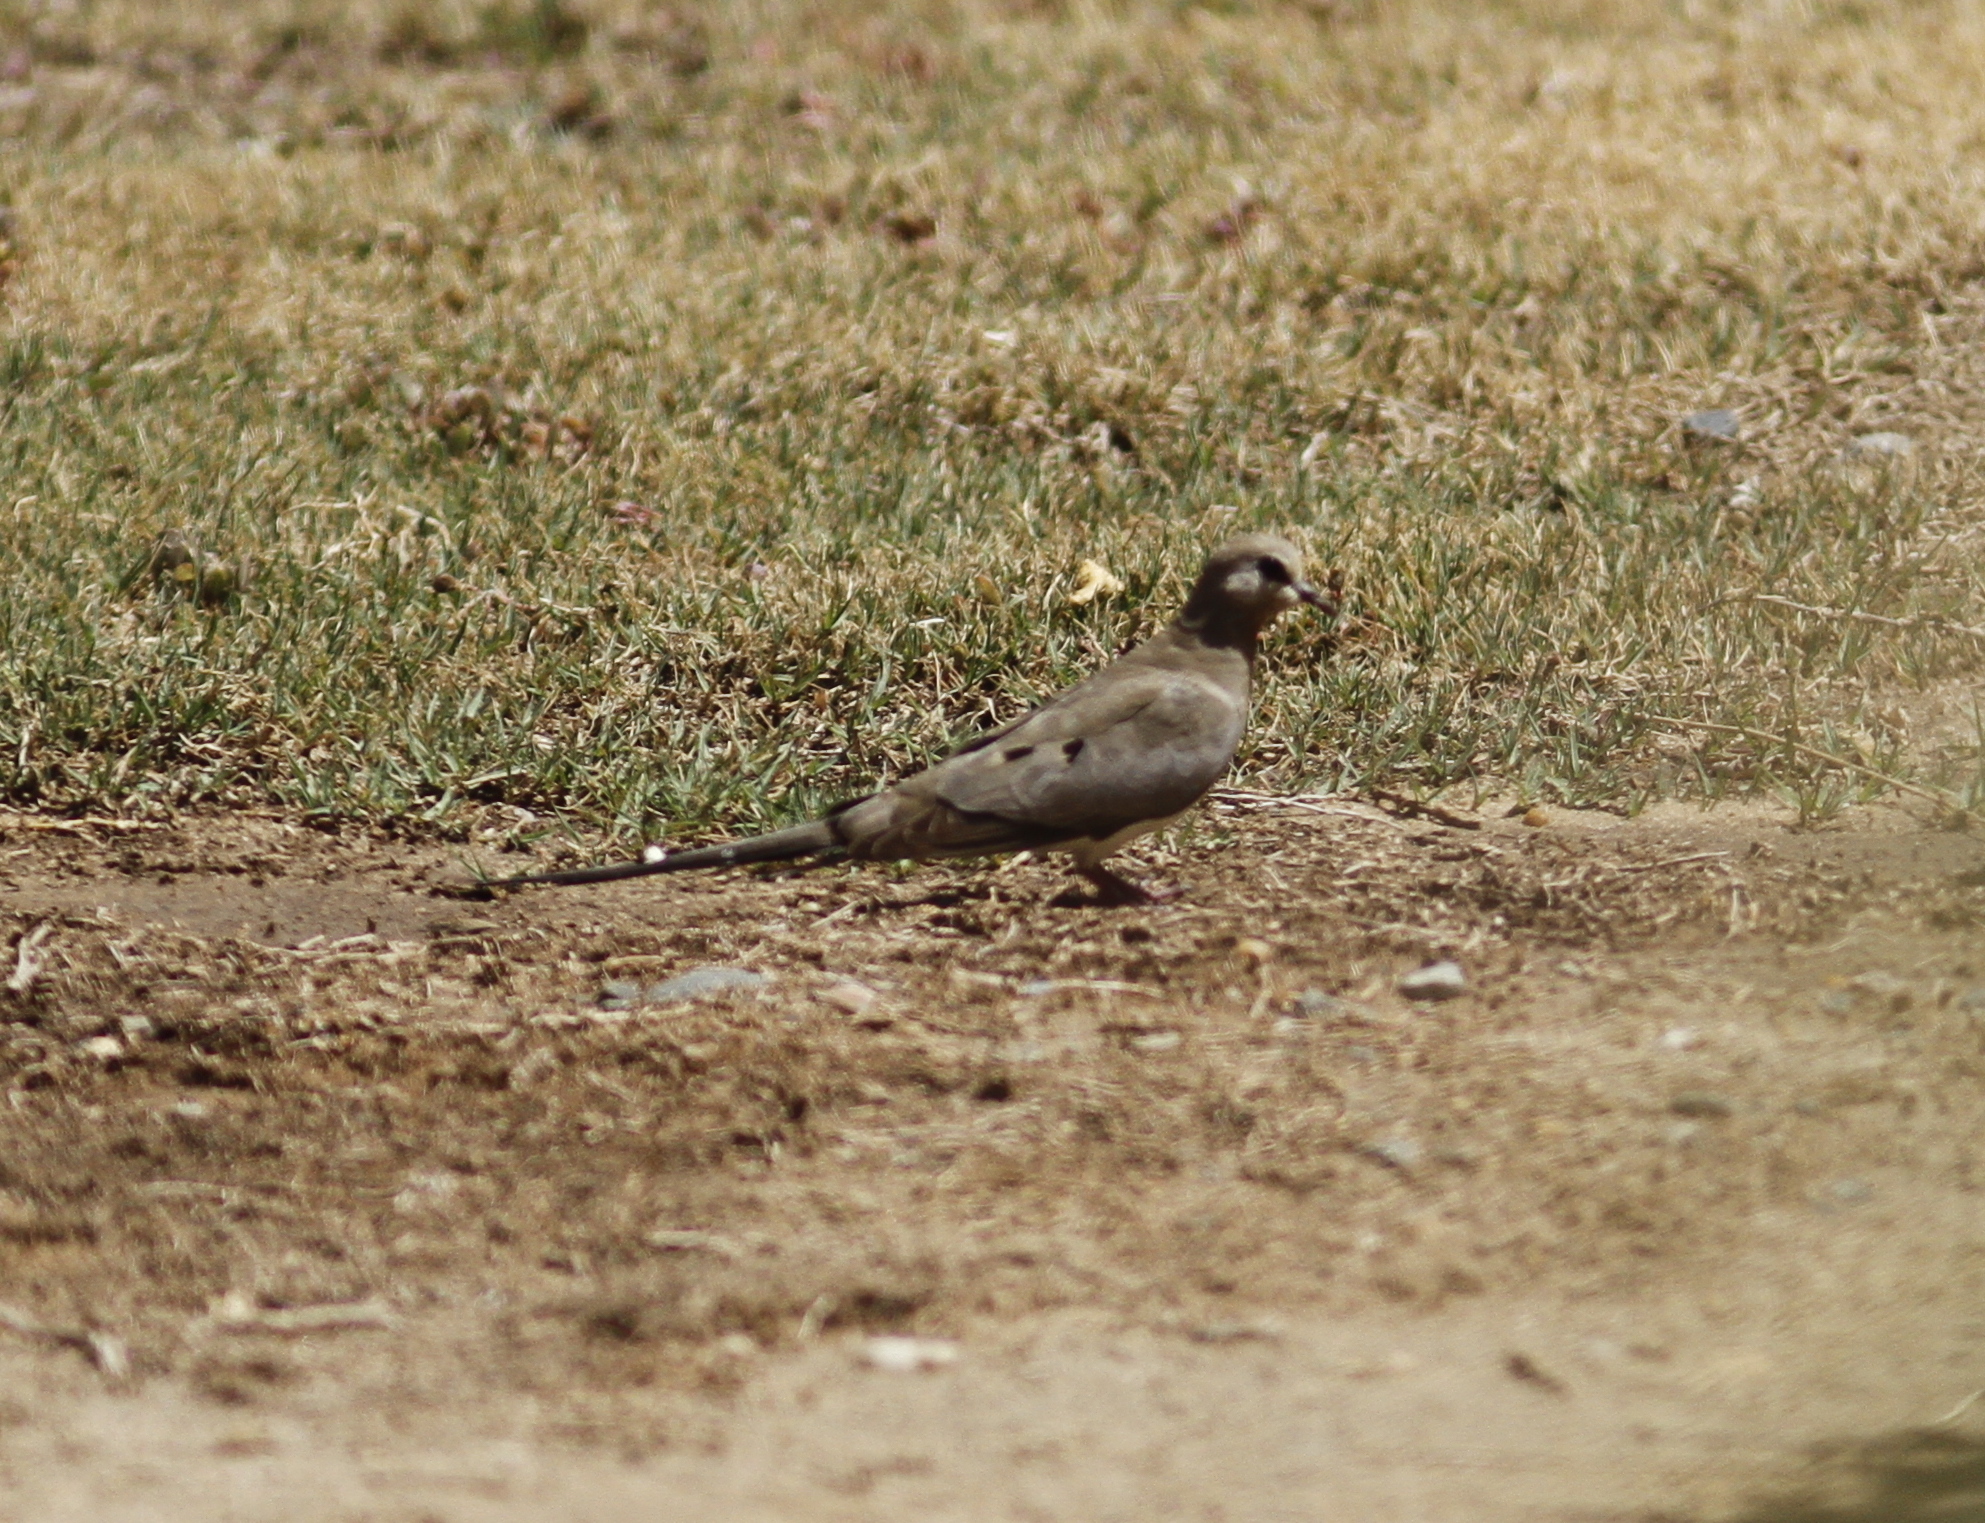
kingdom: Animalia
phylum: Chordata
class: Aves
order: Columbiformes
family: Columbidae
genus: Oena
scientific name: Oena capensis
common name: Namaqua dove
